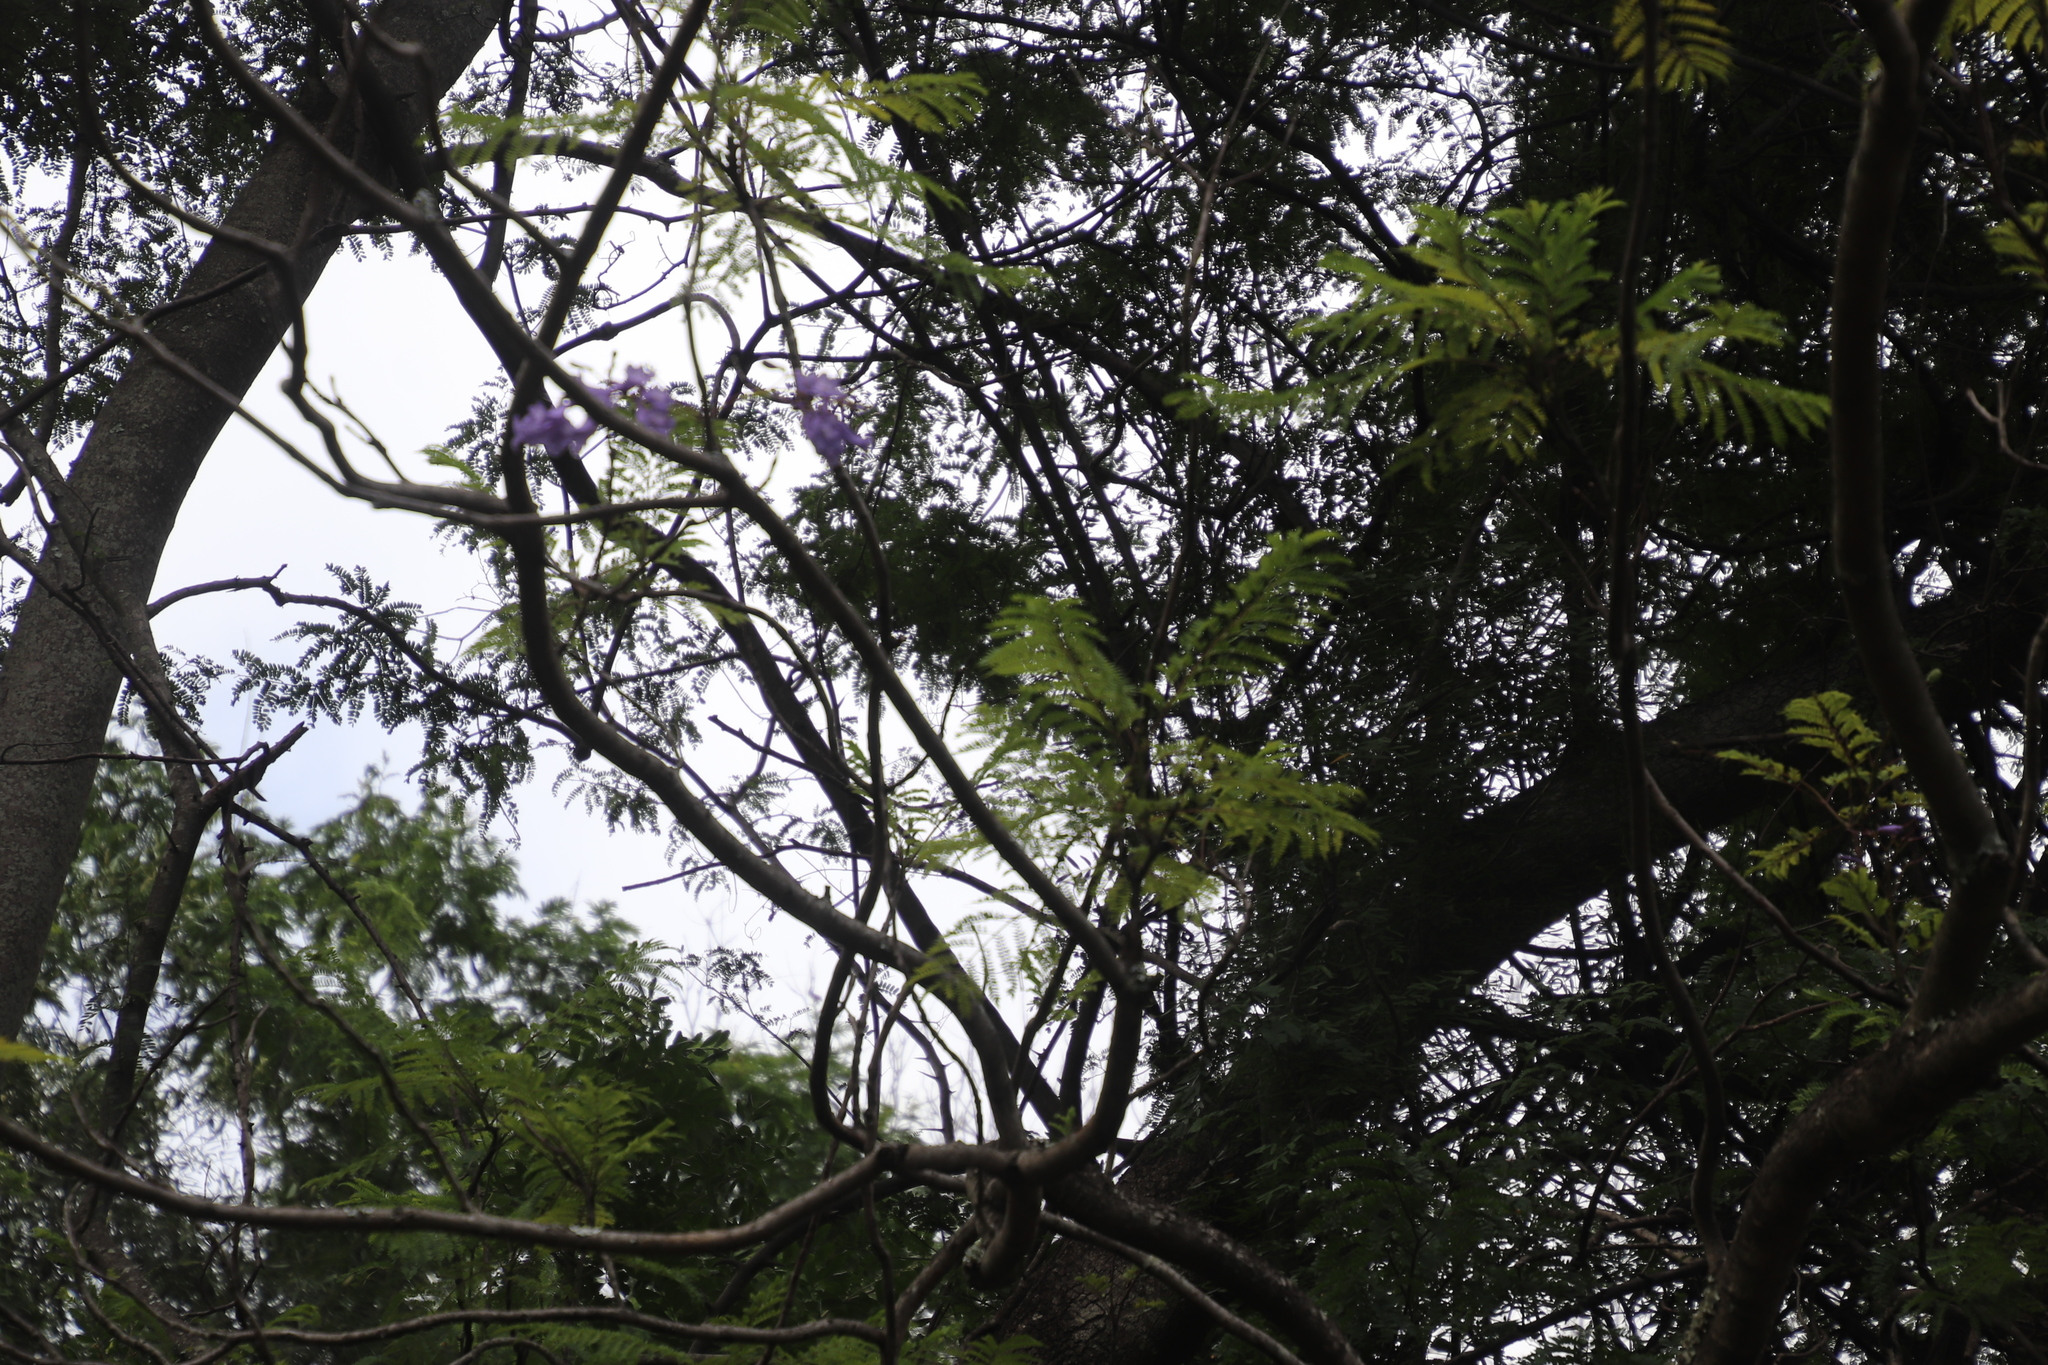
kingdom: Plantae
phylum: Tracheophyta
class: Magnoliopsida
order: Lamiales
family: Bignoniaceae
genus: Jacaranda
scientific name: Jacaranda mimosifolia
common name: Black poui
